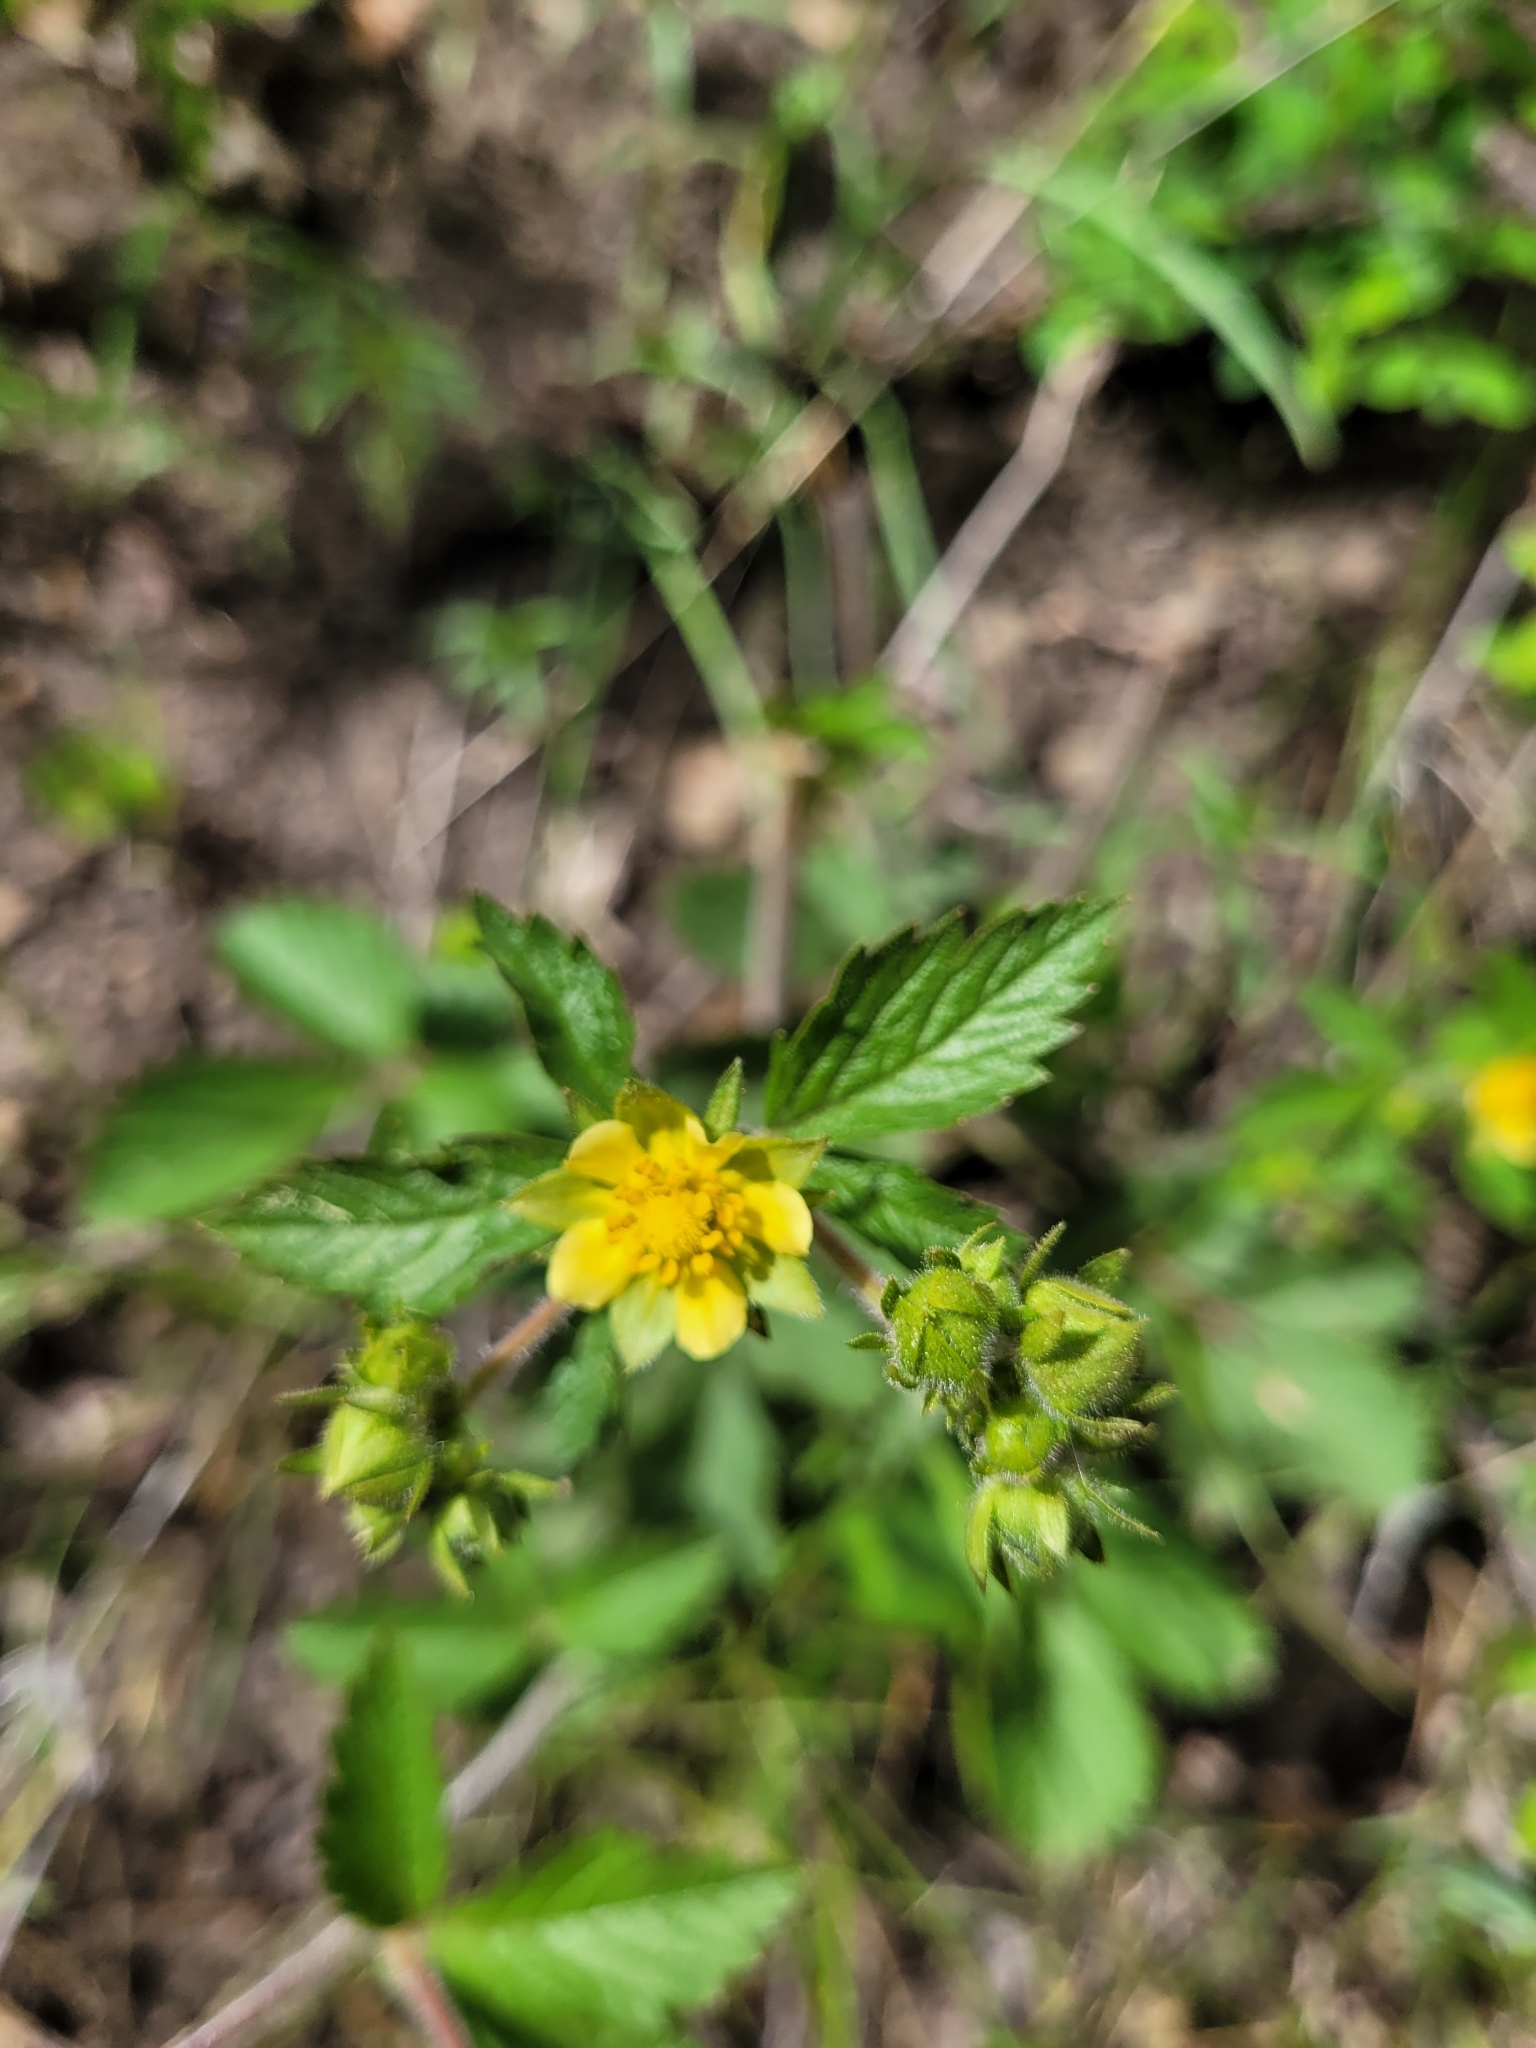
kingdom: Plantae
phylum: Tracheophyta
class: Magnoliopsida
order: Rosales
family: Rosaceae
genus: Drymocallis
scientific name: Drymocallis convallaria
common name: Cream cinquefoil
